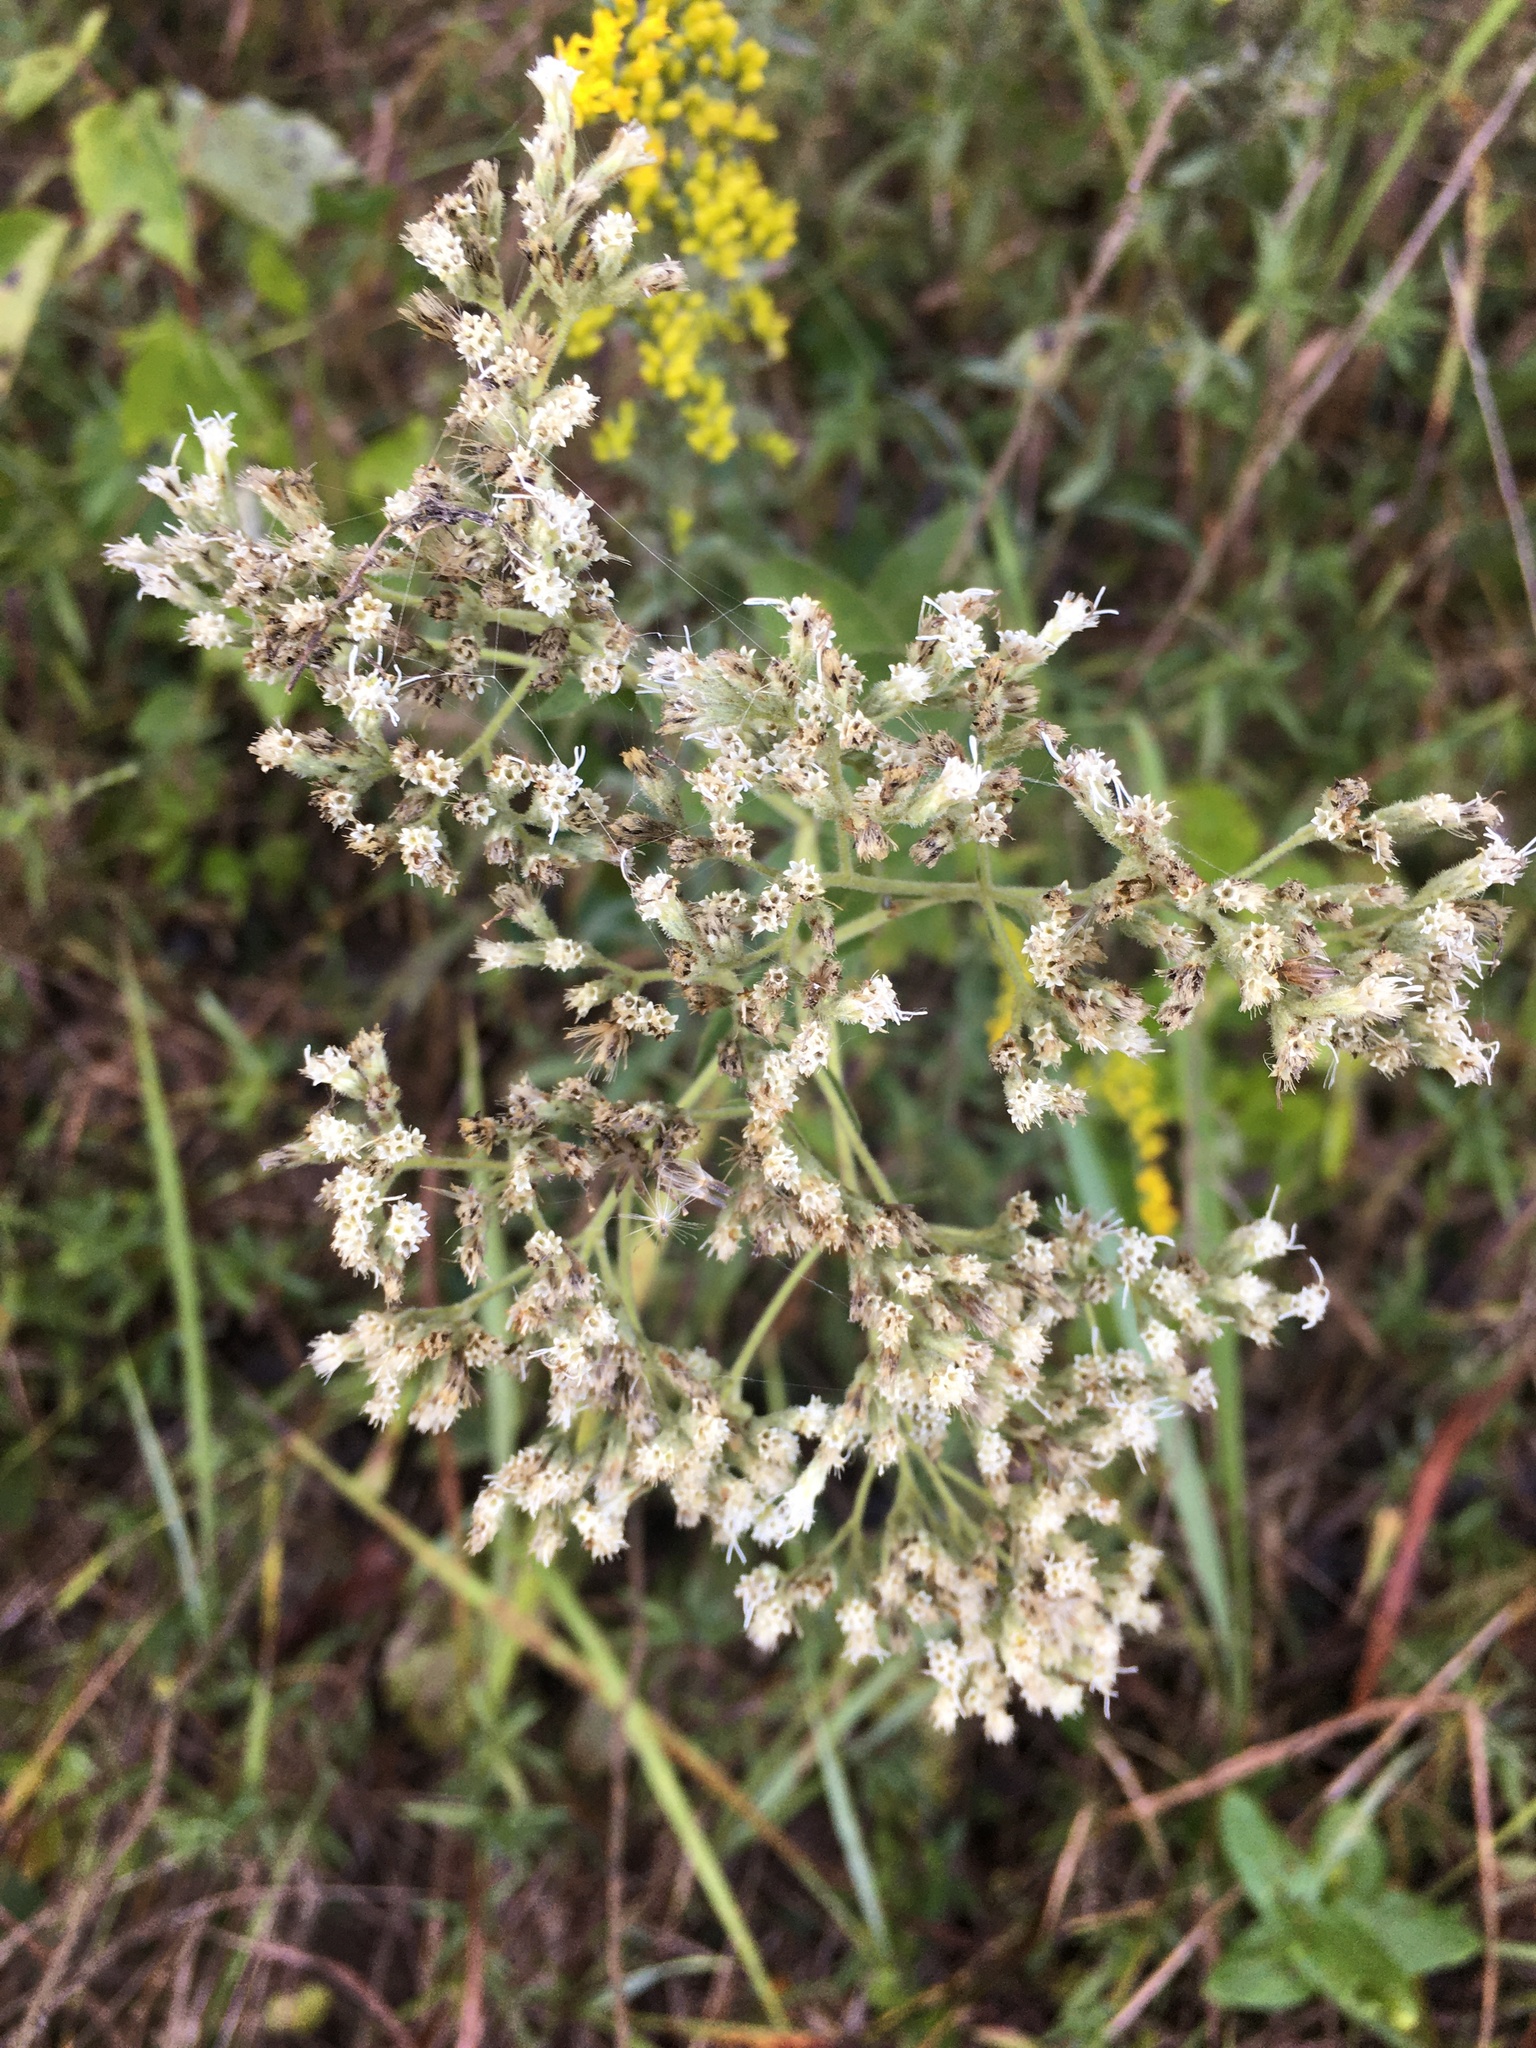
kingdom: Plantae
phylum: Tracheophyta
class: Magnoliopsida
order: Asterales
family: Asteraceae
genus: Eupatorium
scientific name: Eupatorium rotundifolium
